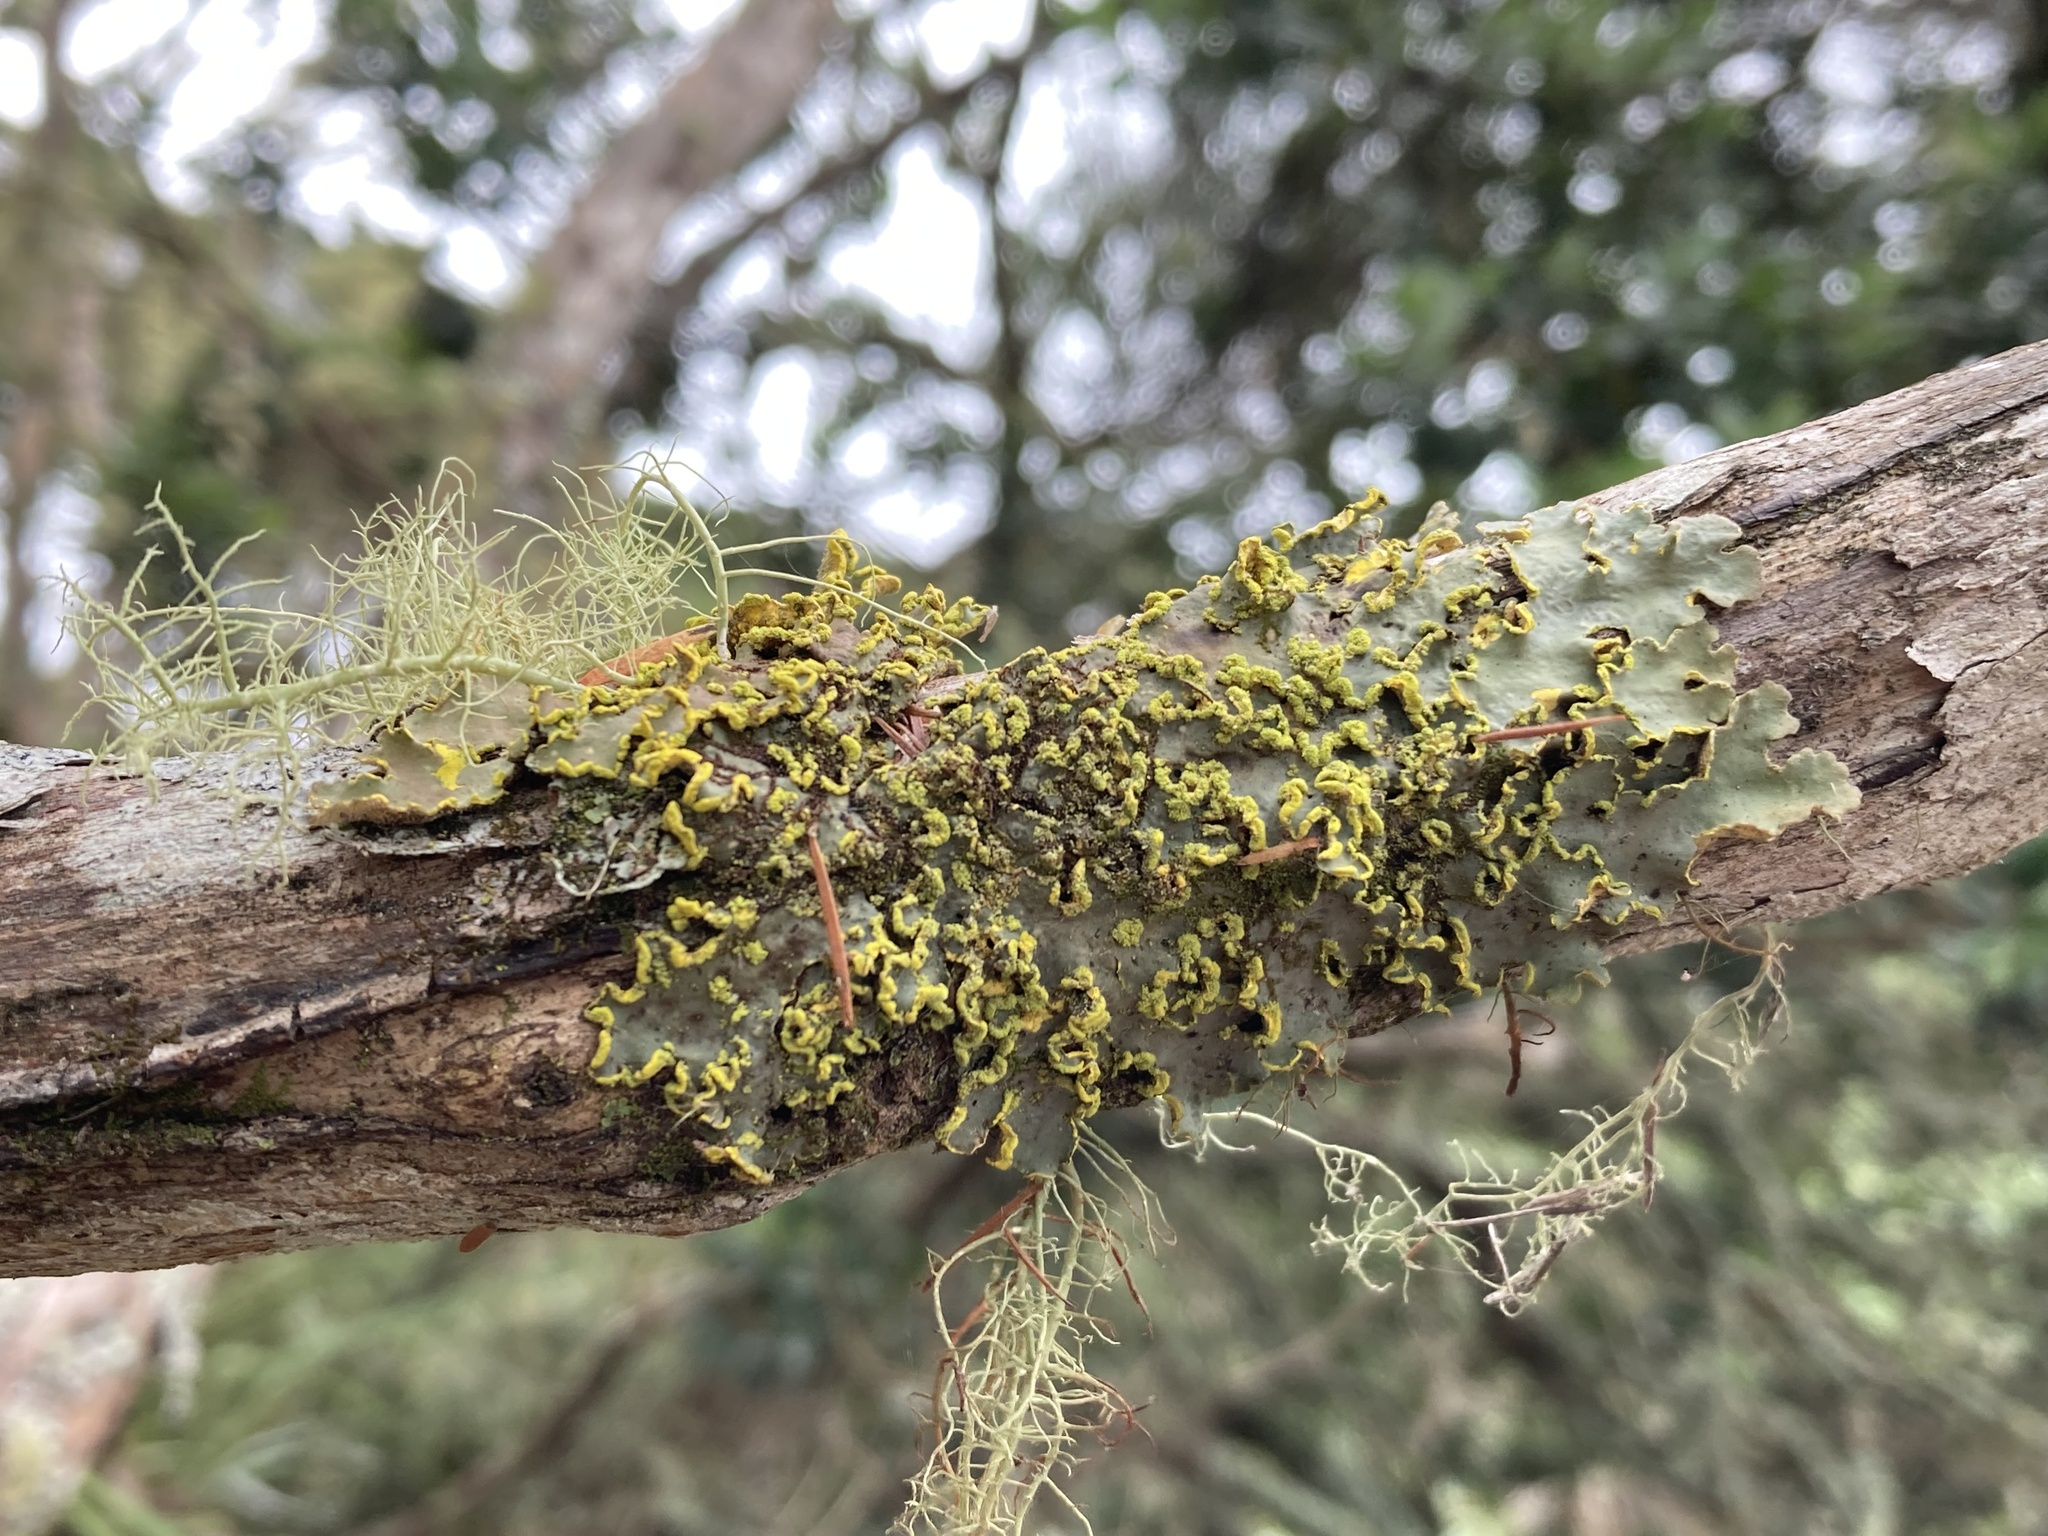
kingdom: Fungi
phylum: Ascomycota
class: Lecanoromycetes
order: Peltigerales
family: Lobariaceae
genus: Pseudocyphellaria
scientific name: Pseudocyphellaria aurata
